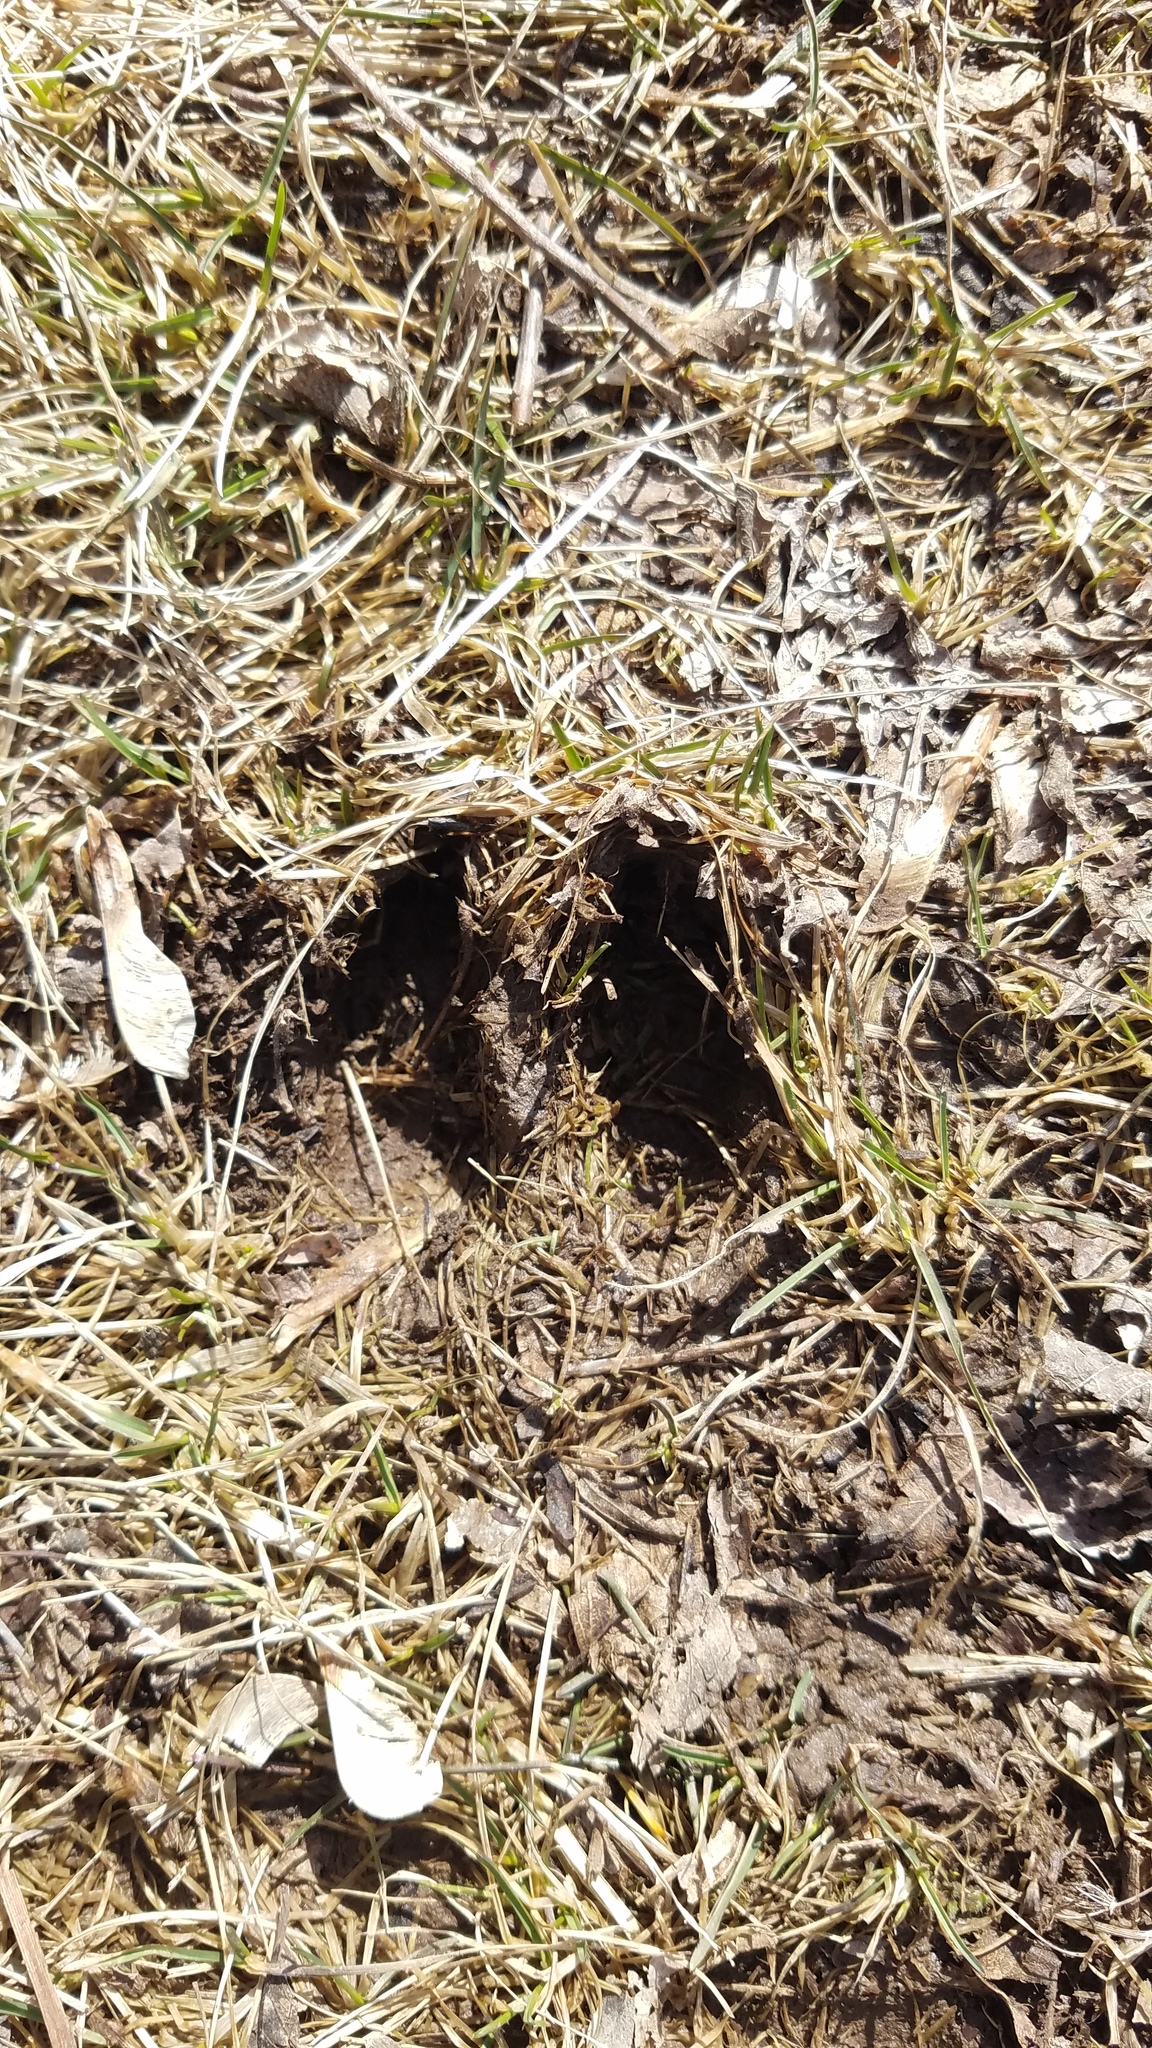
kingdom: Animalia
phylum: Chordata
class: Mammalia
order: Artiodactyla
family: Cervidae
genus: Odocoileus
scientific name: Odocoileus virginianus
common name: White-tailed deer
